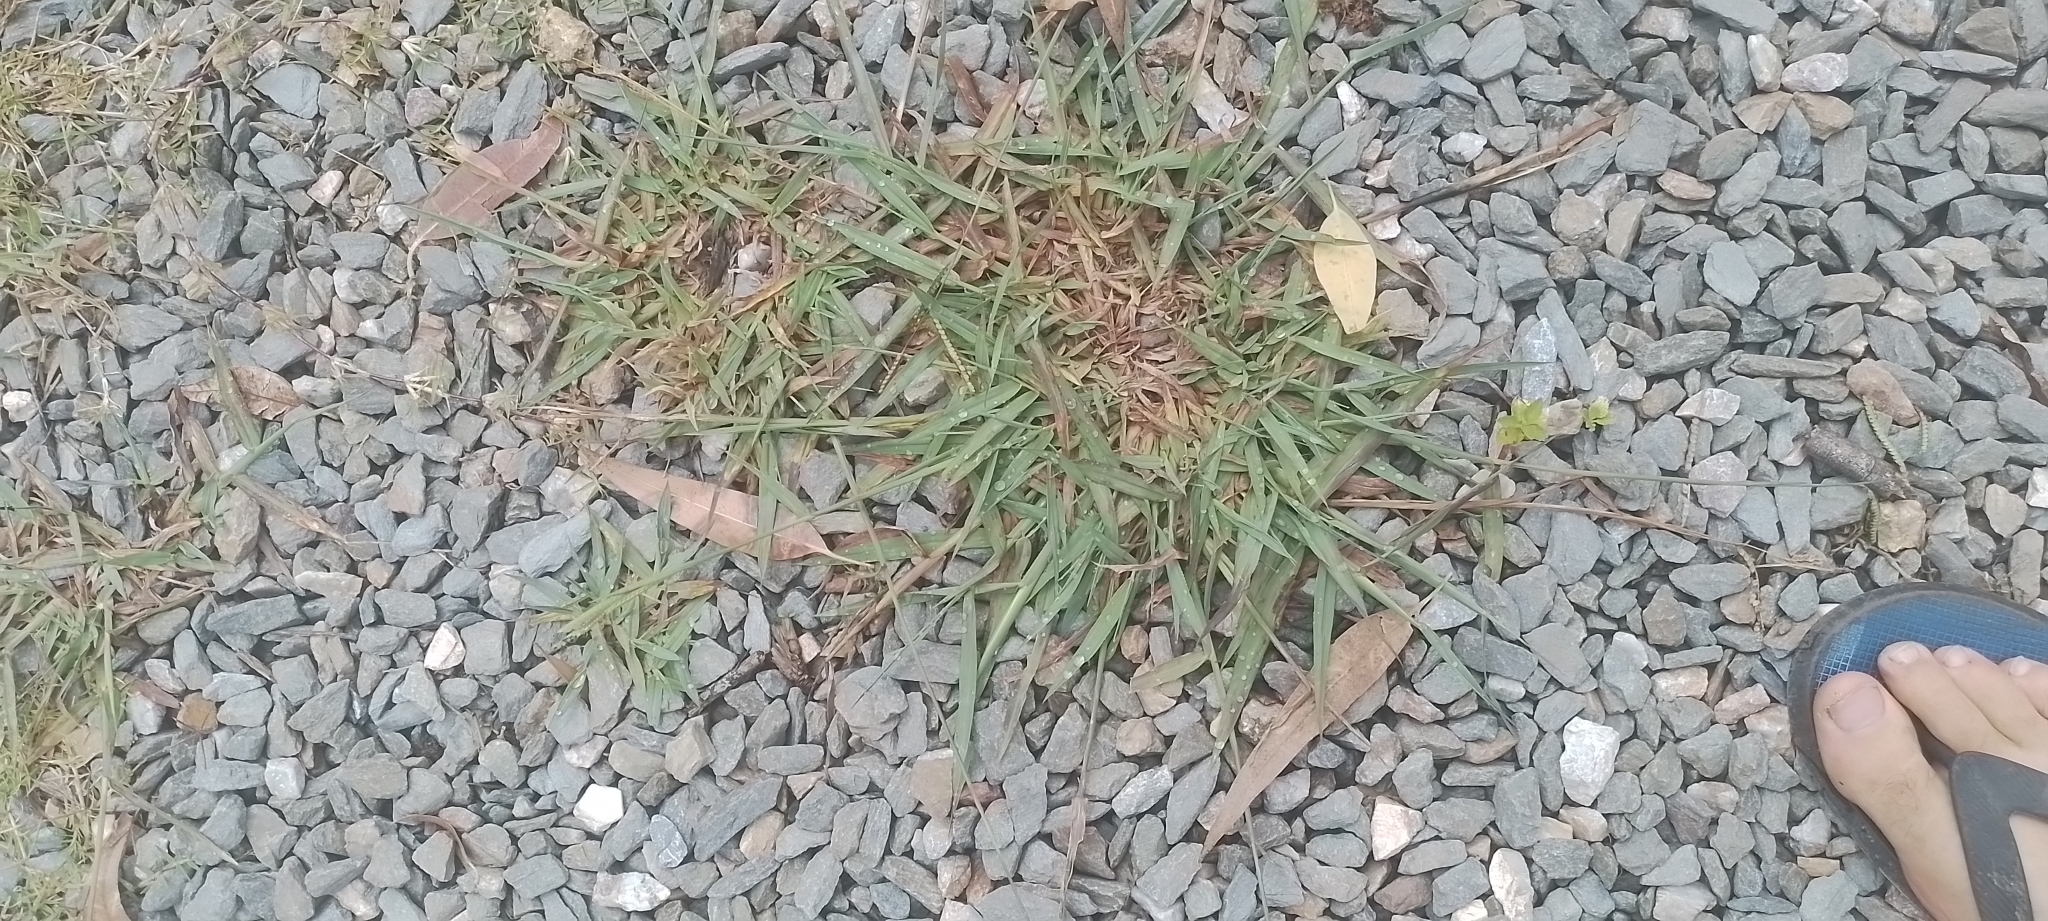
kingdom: Plantae
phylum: Tracheophyta
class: Liliopsida
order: Poales
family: Poaceae
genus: Paspalum
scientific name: Paspalum dilatatum
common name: Dallisgrass
